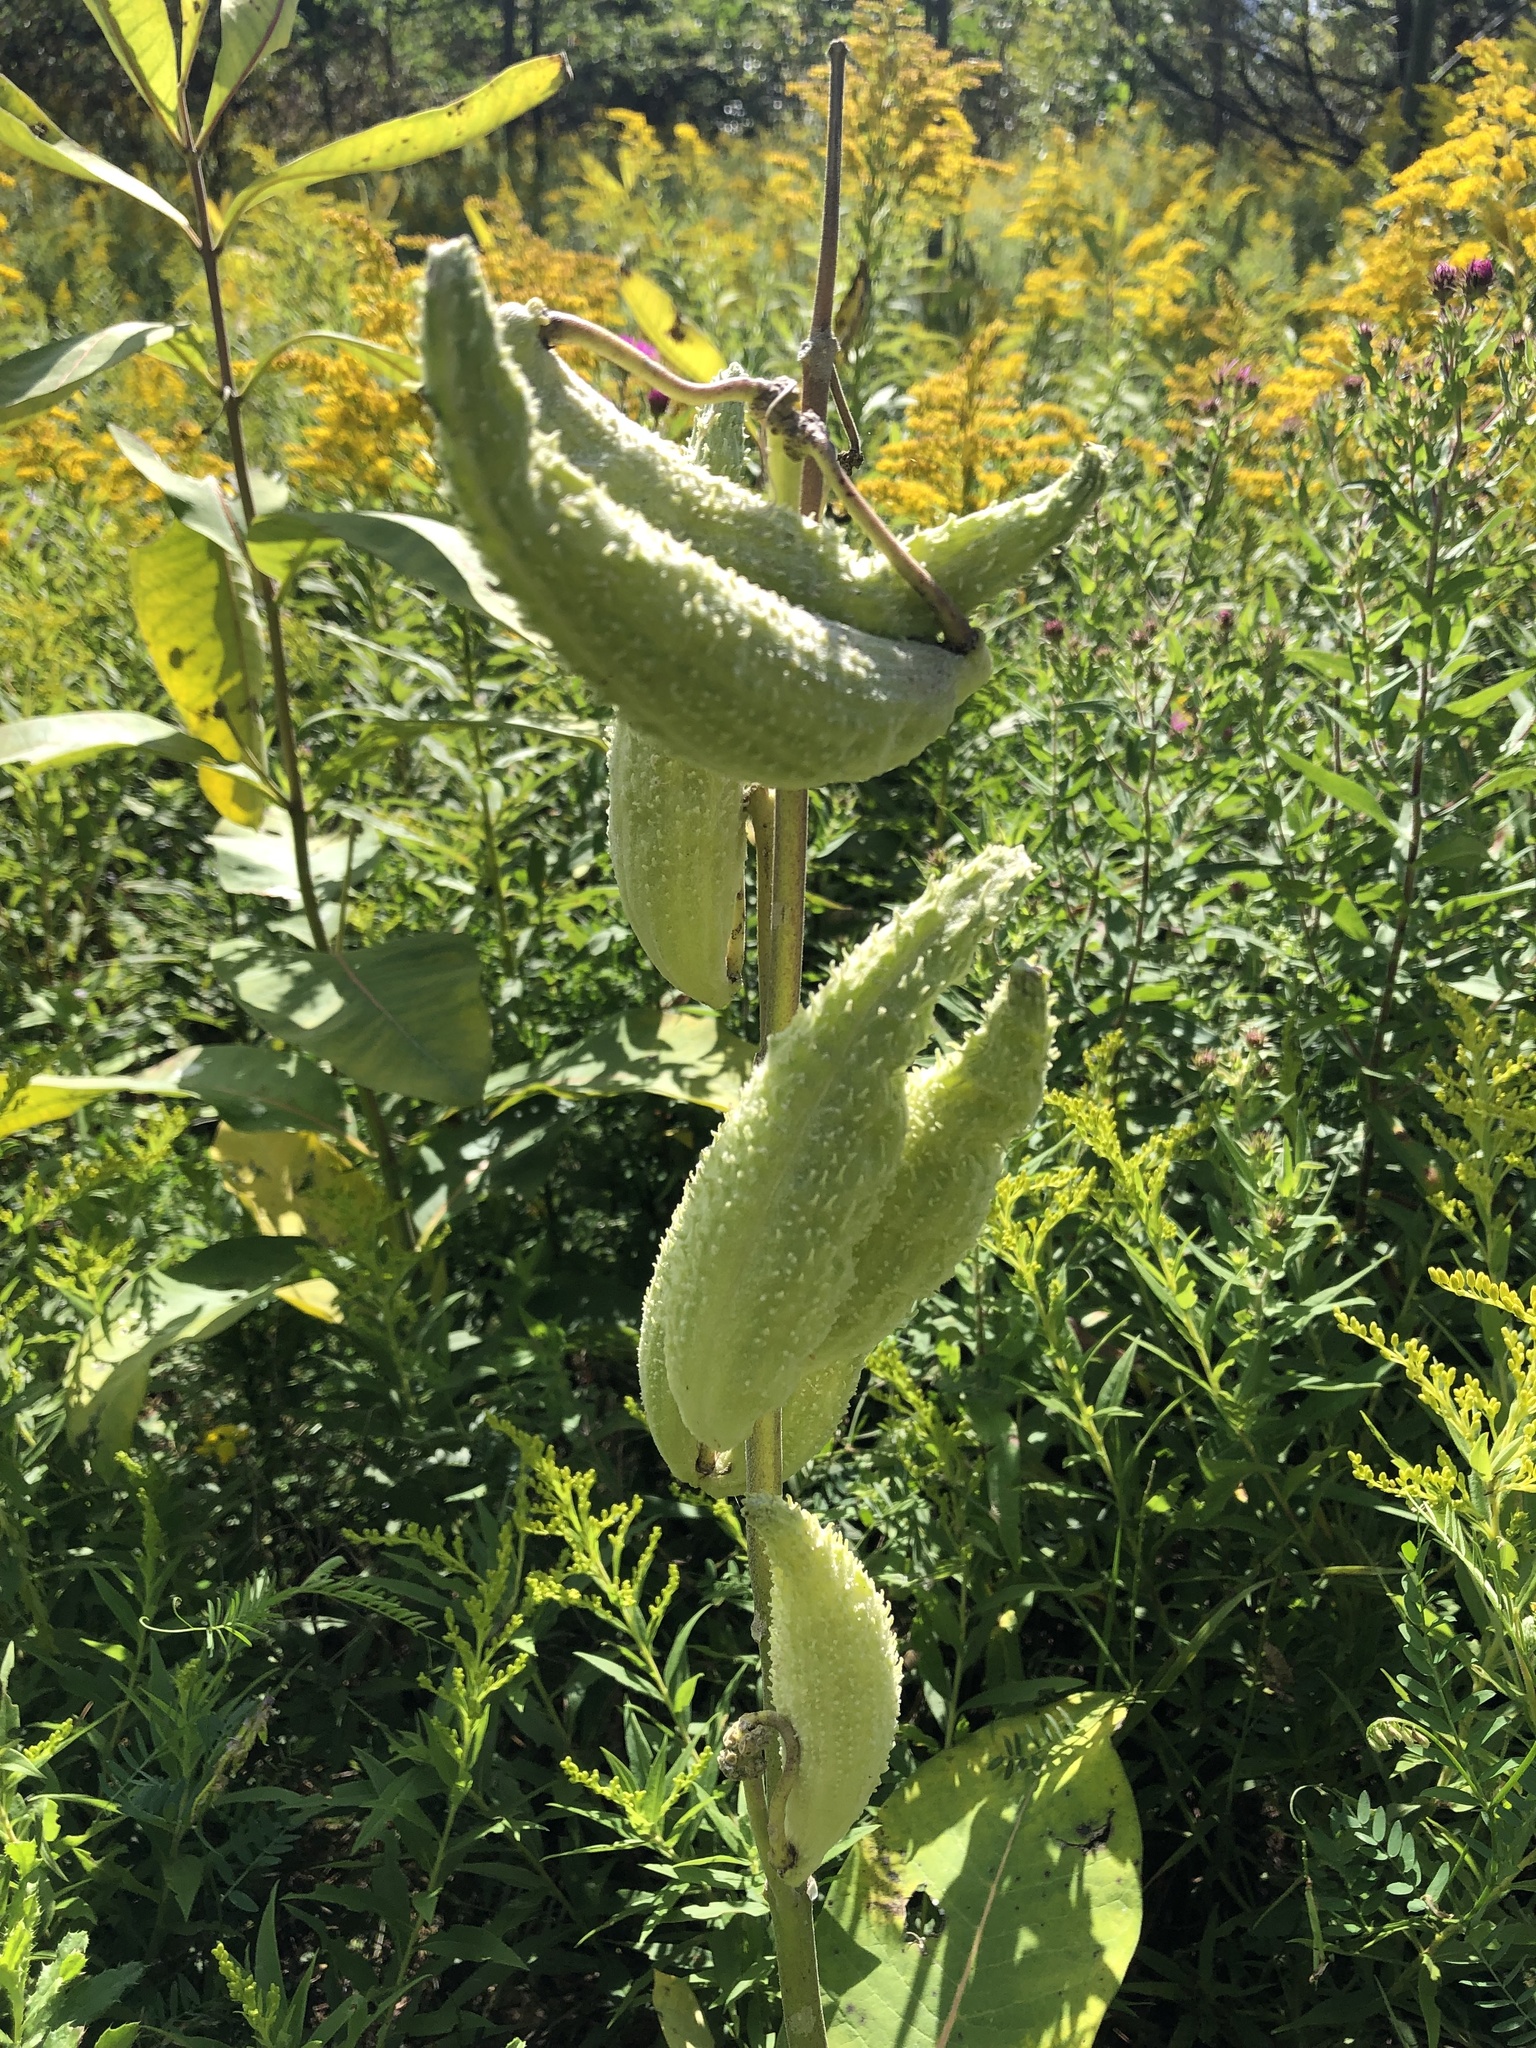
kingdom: Plantae
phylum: Tracheophyta
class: Magnoliopsida
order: Gentianales
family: Apocynaceae
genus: Asclepias
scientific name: Asclepias syriaca
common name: Common milkweed
